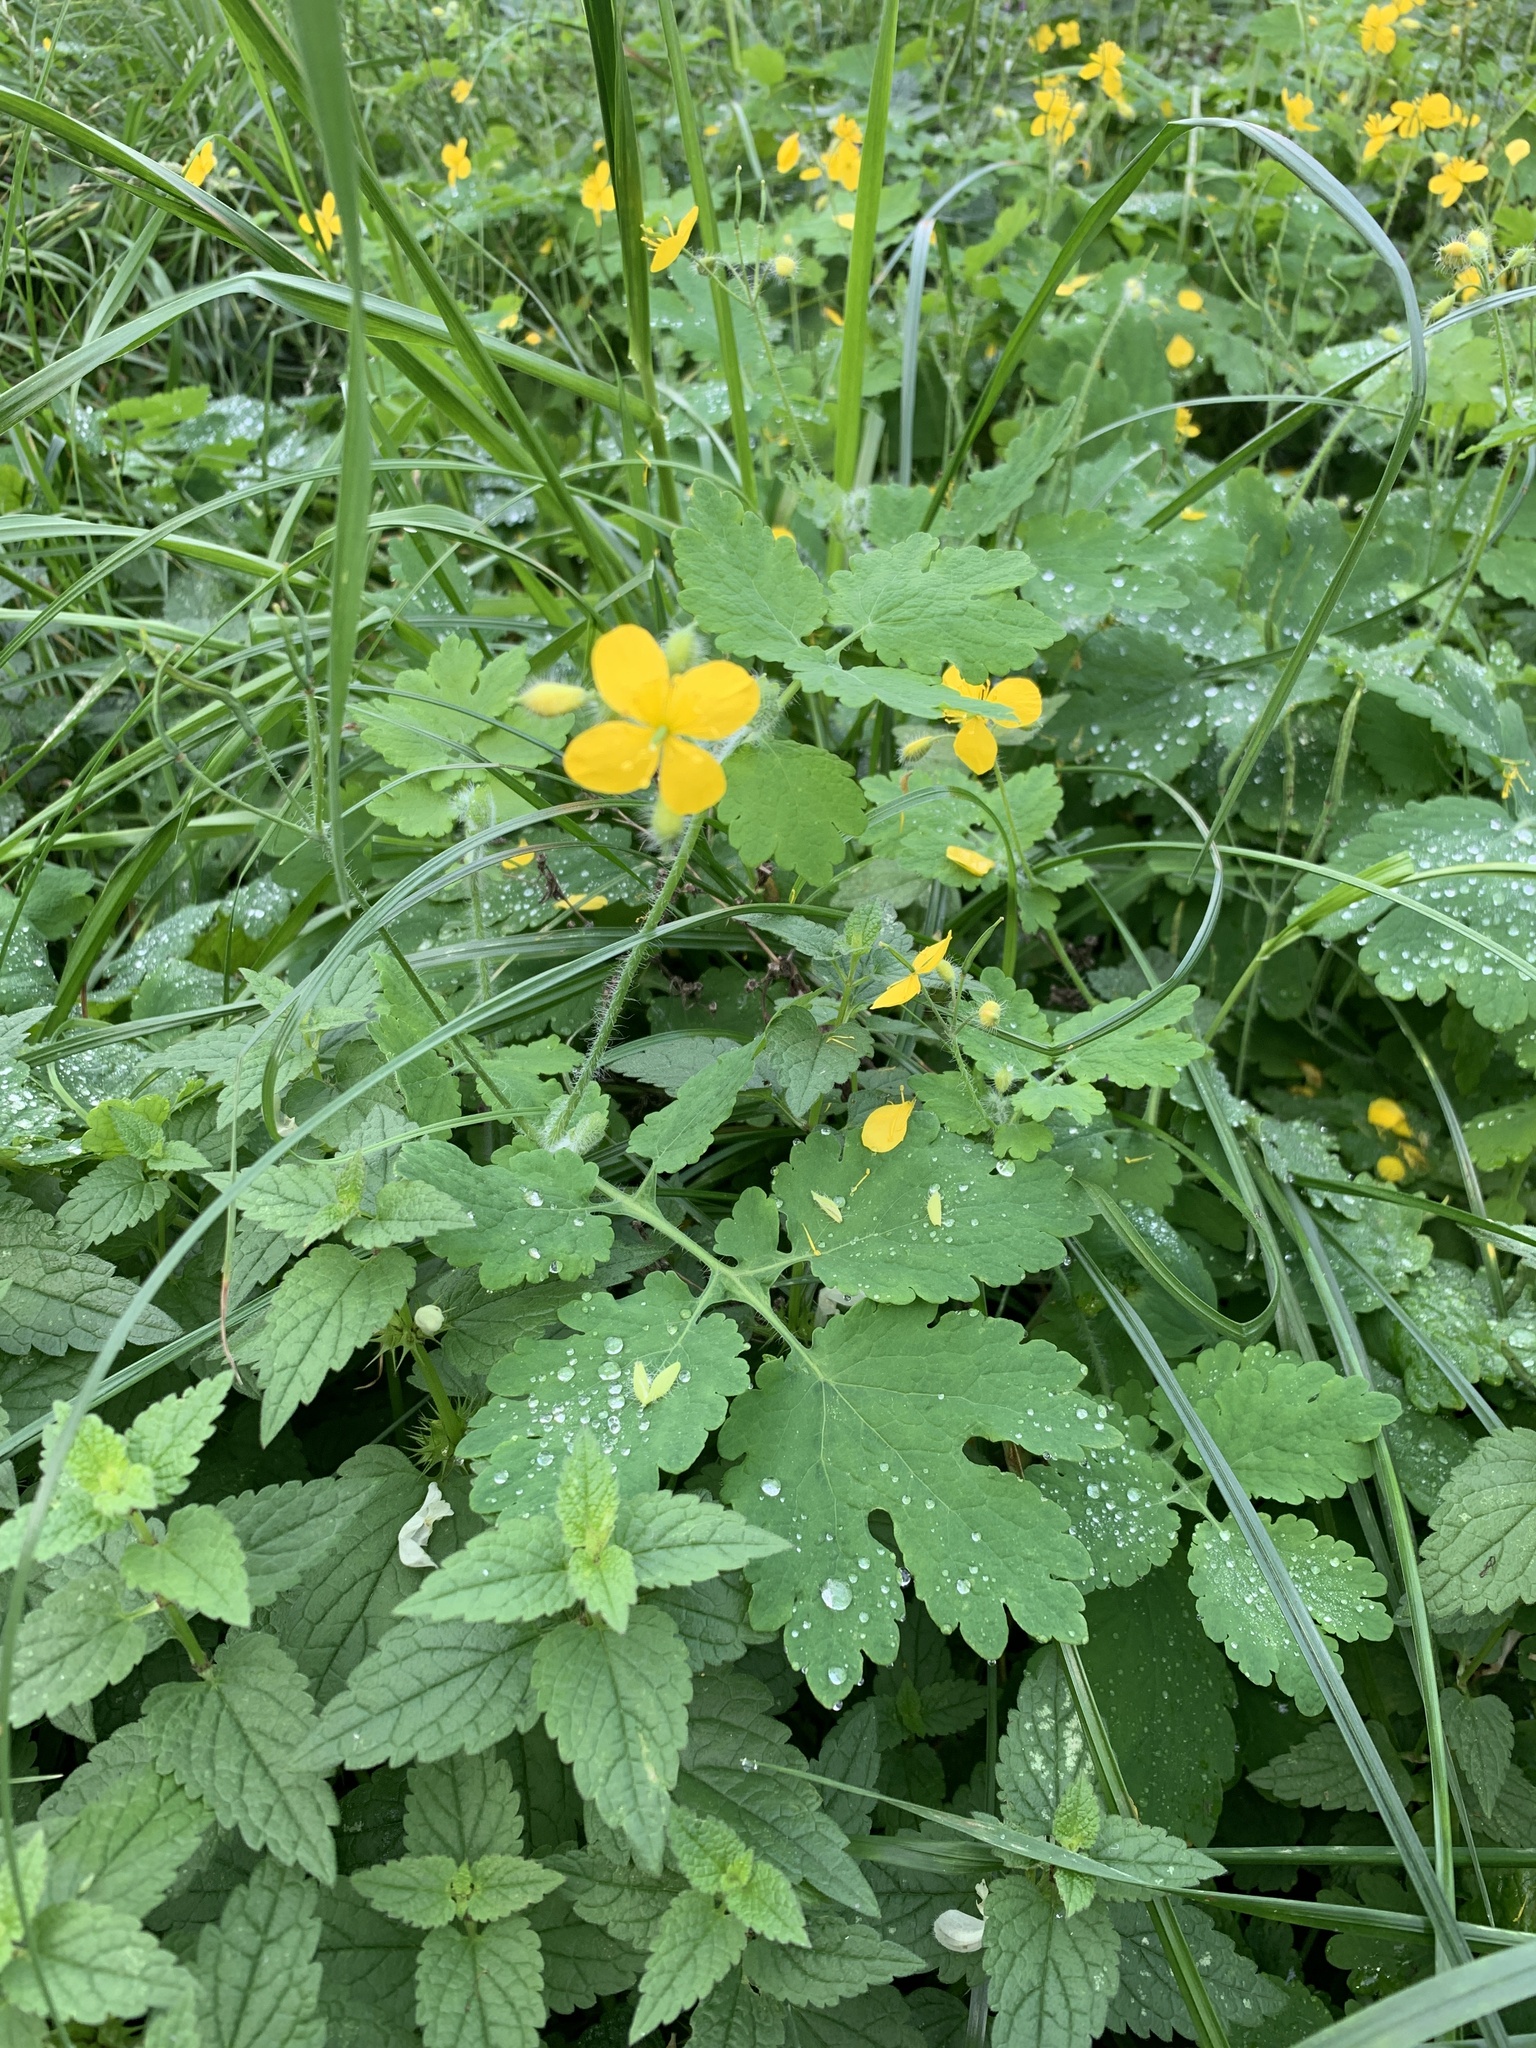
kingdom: Plantae
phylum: Tracheophyta
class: Magnoliopsida
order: Ranunculales
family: Papaveraceae
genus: Chelidonium
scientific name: Chelidonium majus
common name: Greater celandine
